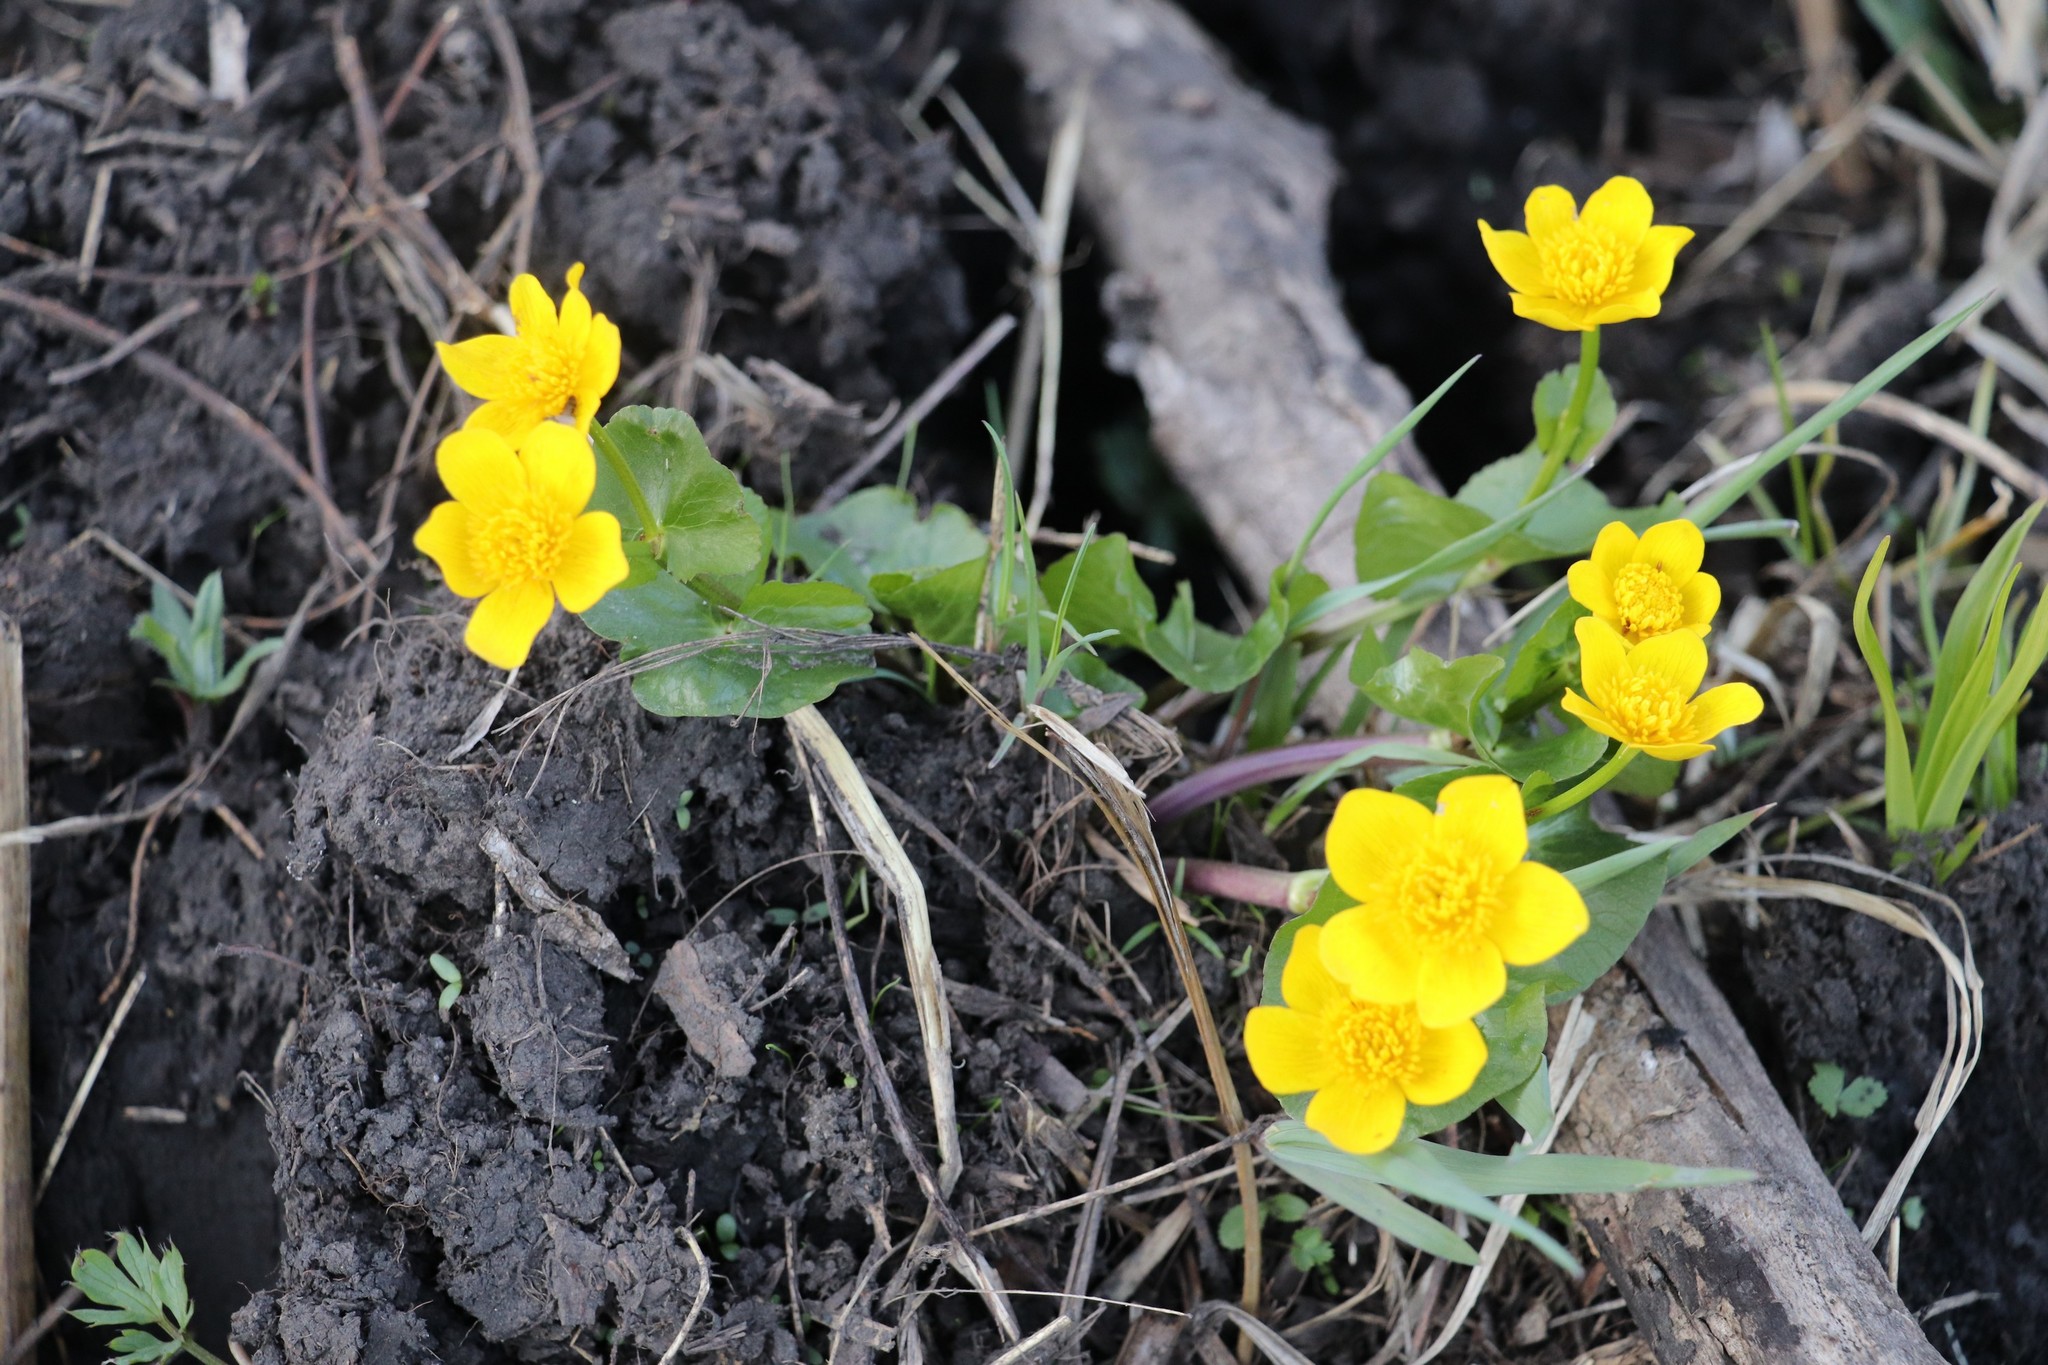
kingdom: Plantae
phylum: Tracheophyta
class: Magnoliopsida
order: Ranunculales
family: Ranunculaceae
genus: Caltha
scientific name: Caltha palustris
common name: Marsh marigold
